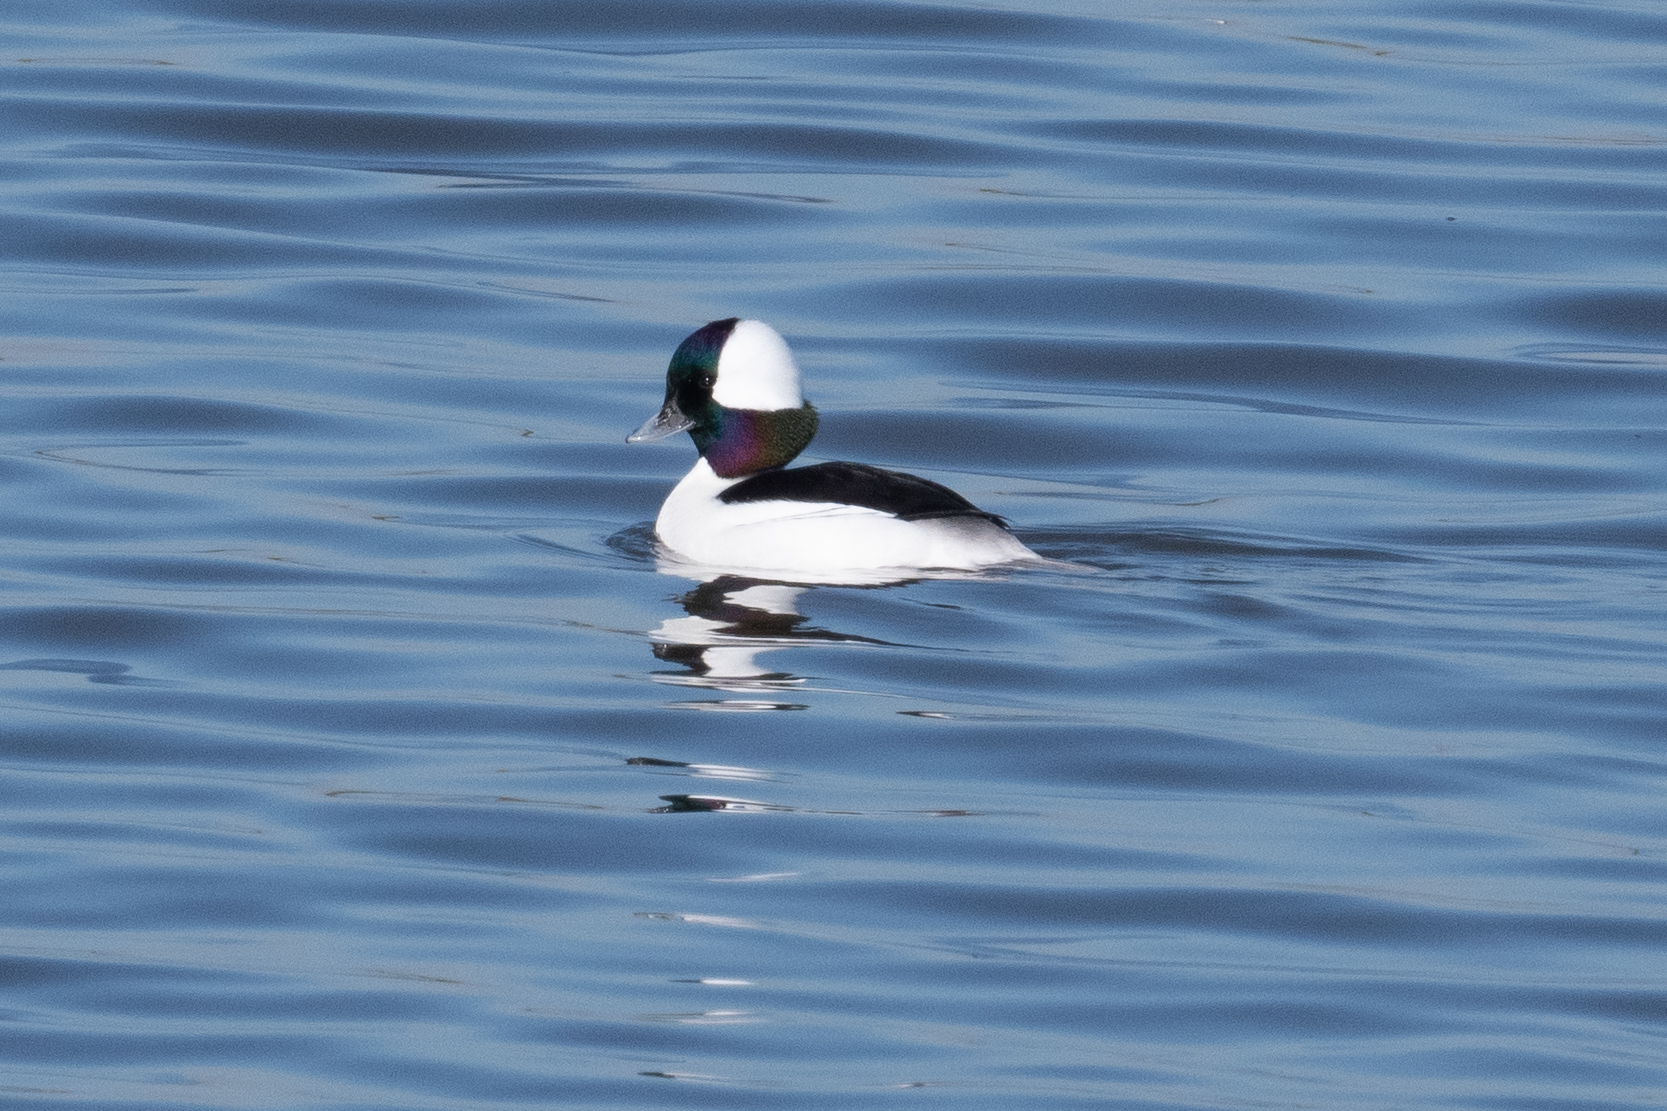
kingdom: Animalia
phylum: Chordata
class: Aves
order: Anseriformes
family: Anatidae
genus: Bucephala
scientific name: Bucephala albeola
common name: Bufflehead
